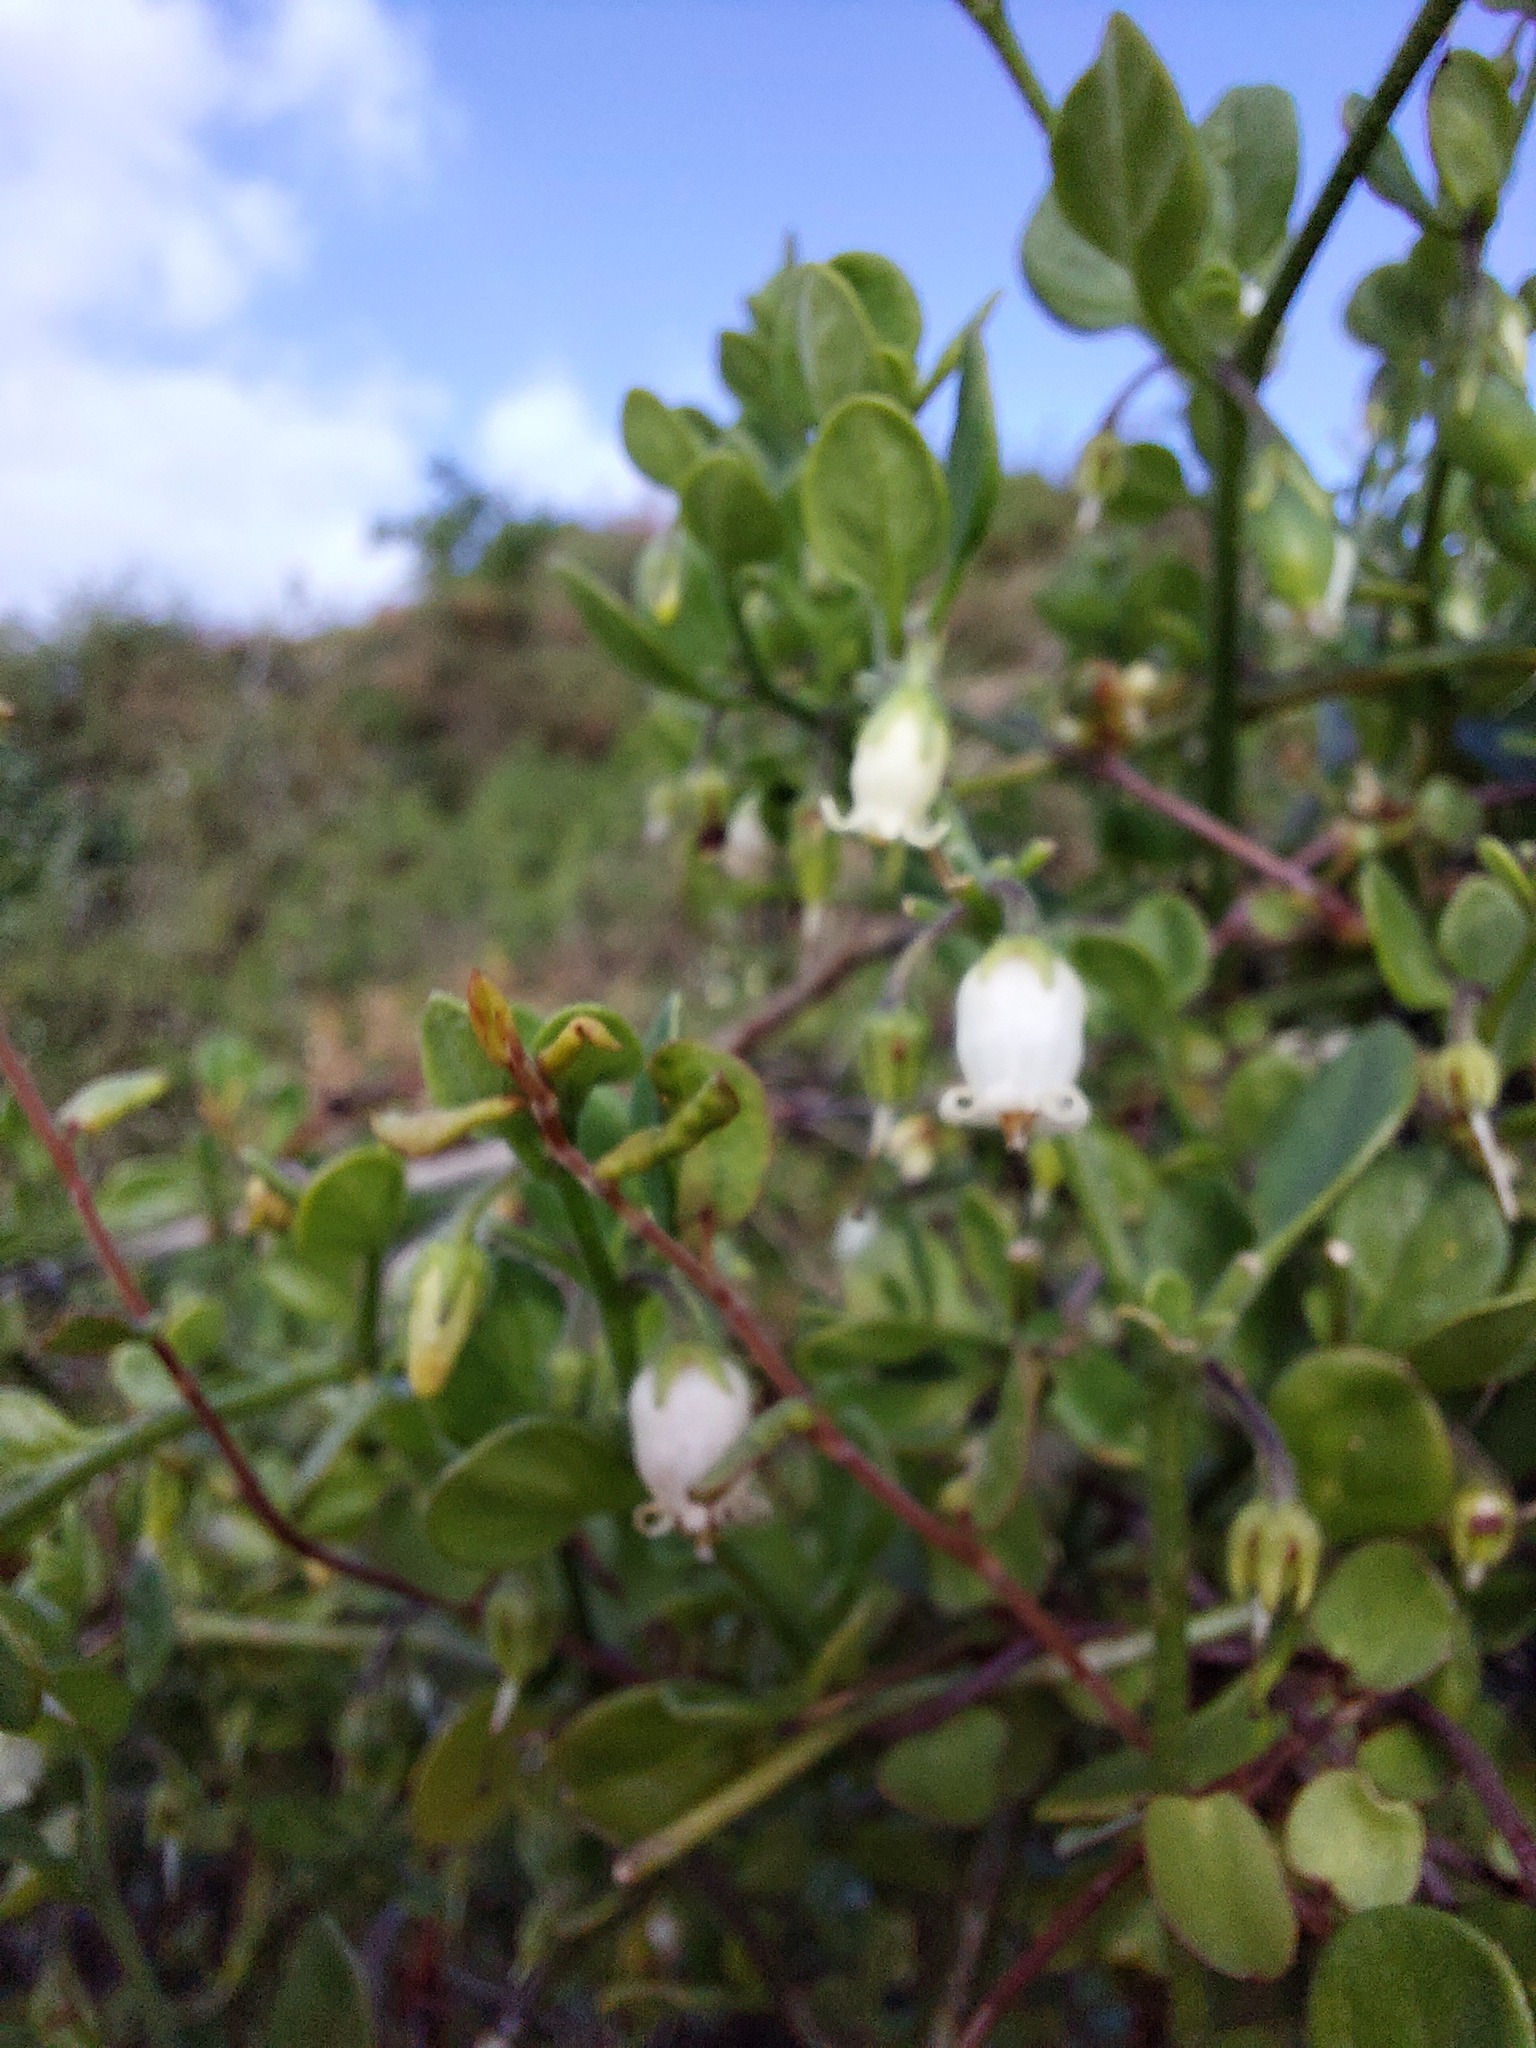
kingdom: Plantae
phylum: Tracheophyta
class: Magnoliopsida
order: Solanales
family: Solanaceae
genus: Salpichroa
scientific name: Salpichroa origanifolia
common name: Lily-of-the-valley-vine
